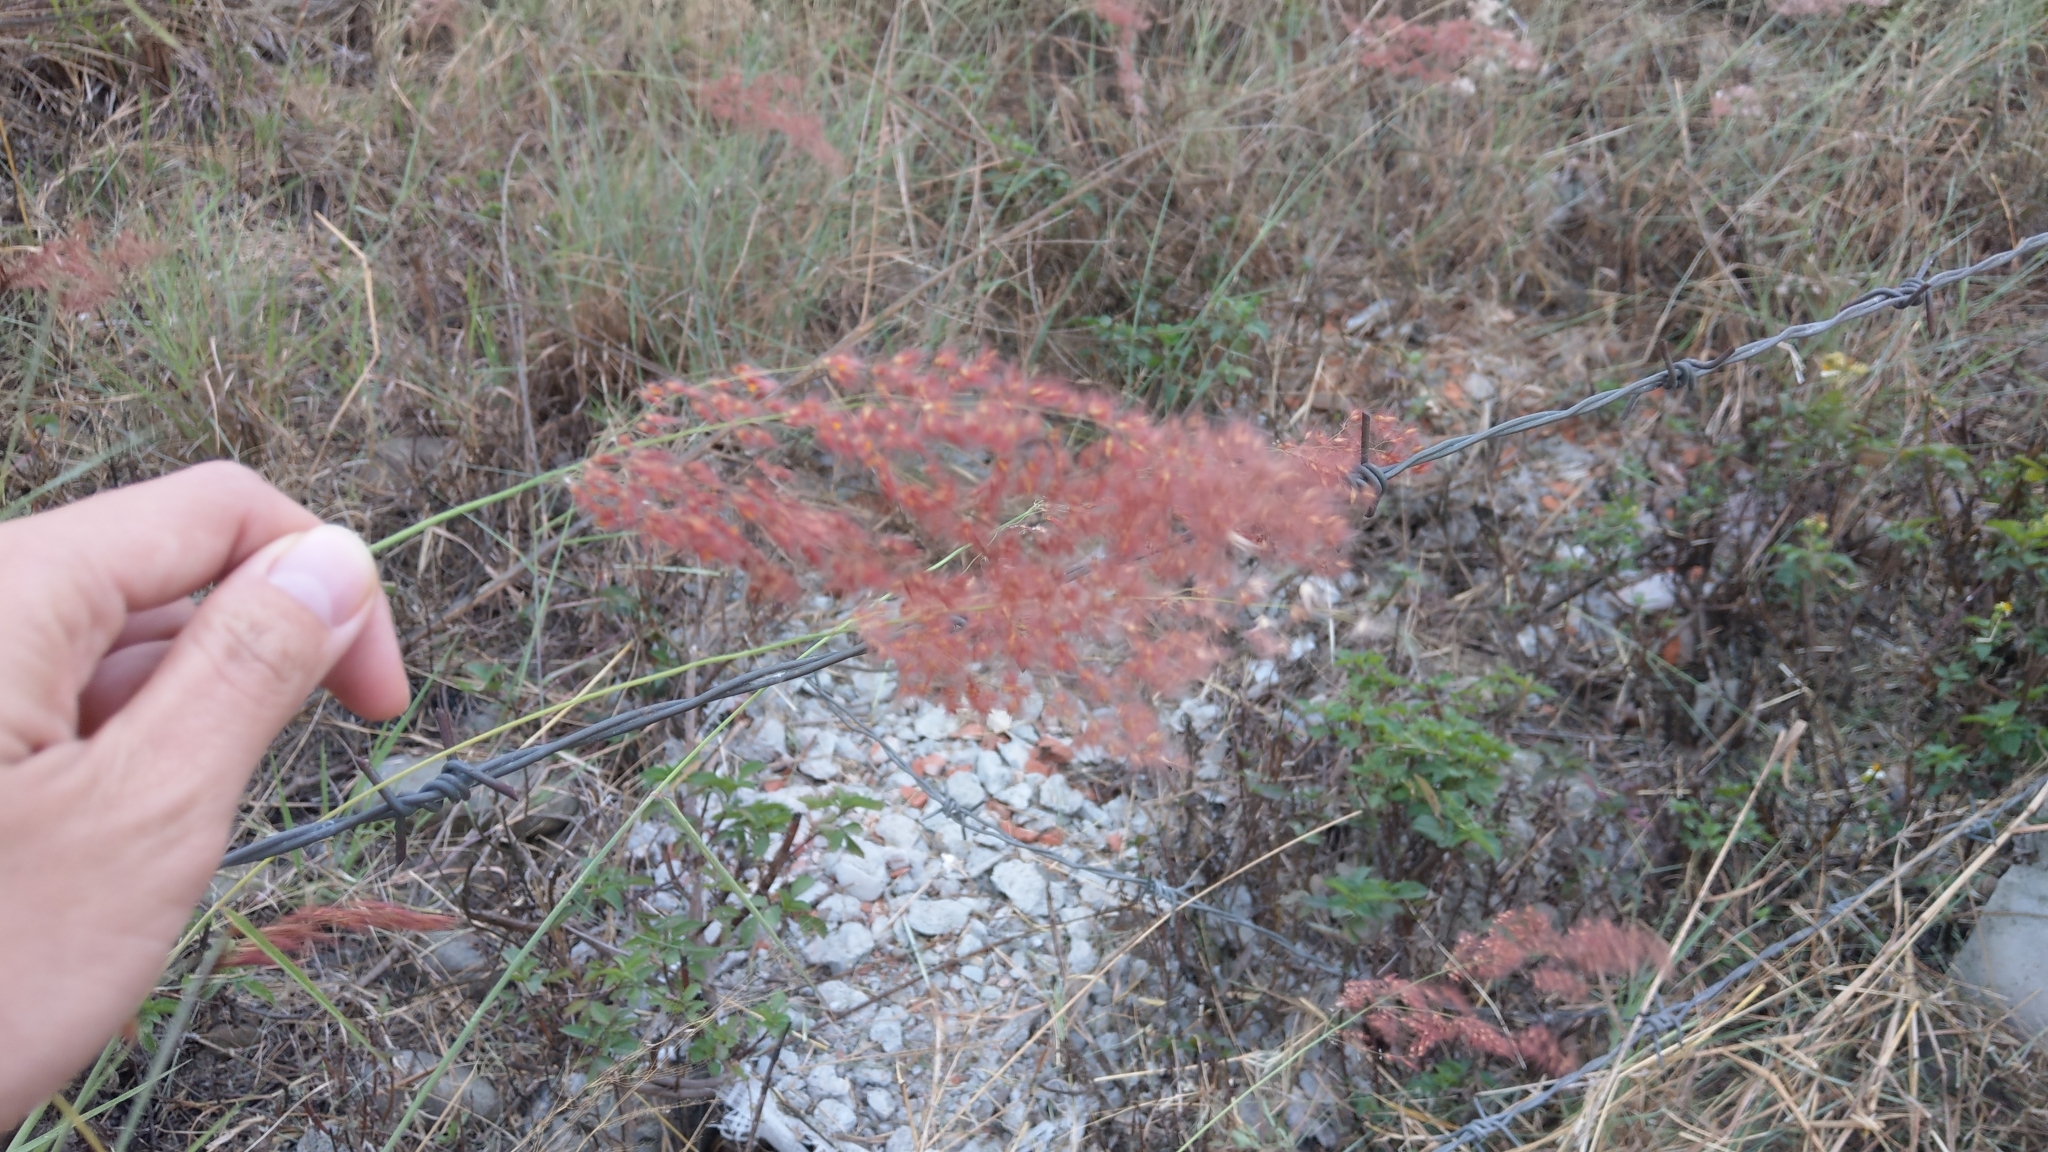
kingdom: Plantae
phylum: Tracheophyta
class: Liliopsida
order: Poales
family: Poaceae
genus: Melinis
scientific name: Melinis repens
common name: Rose natal grass
